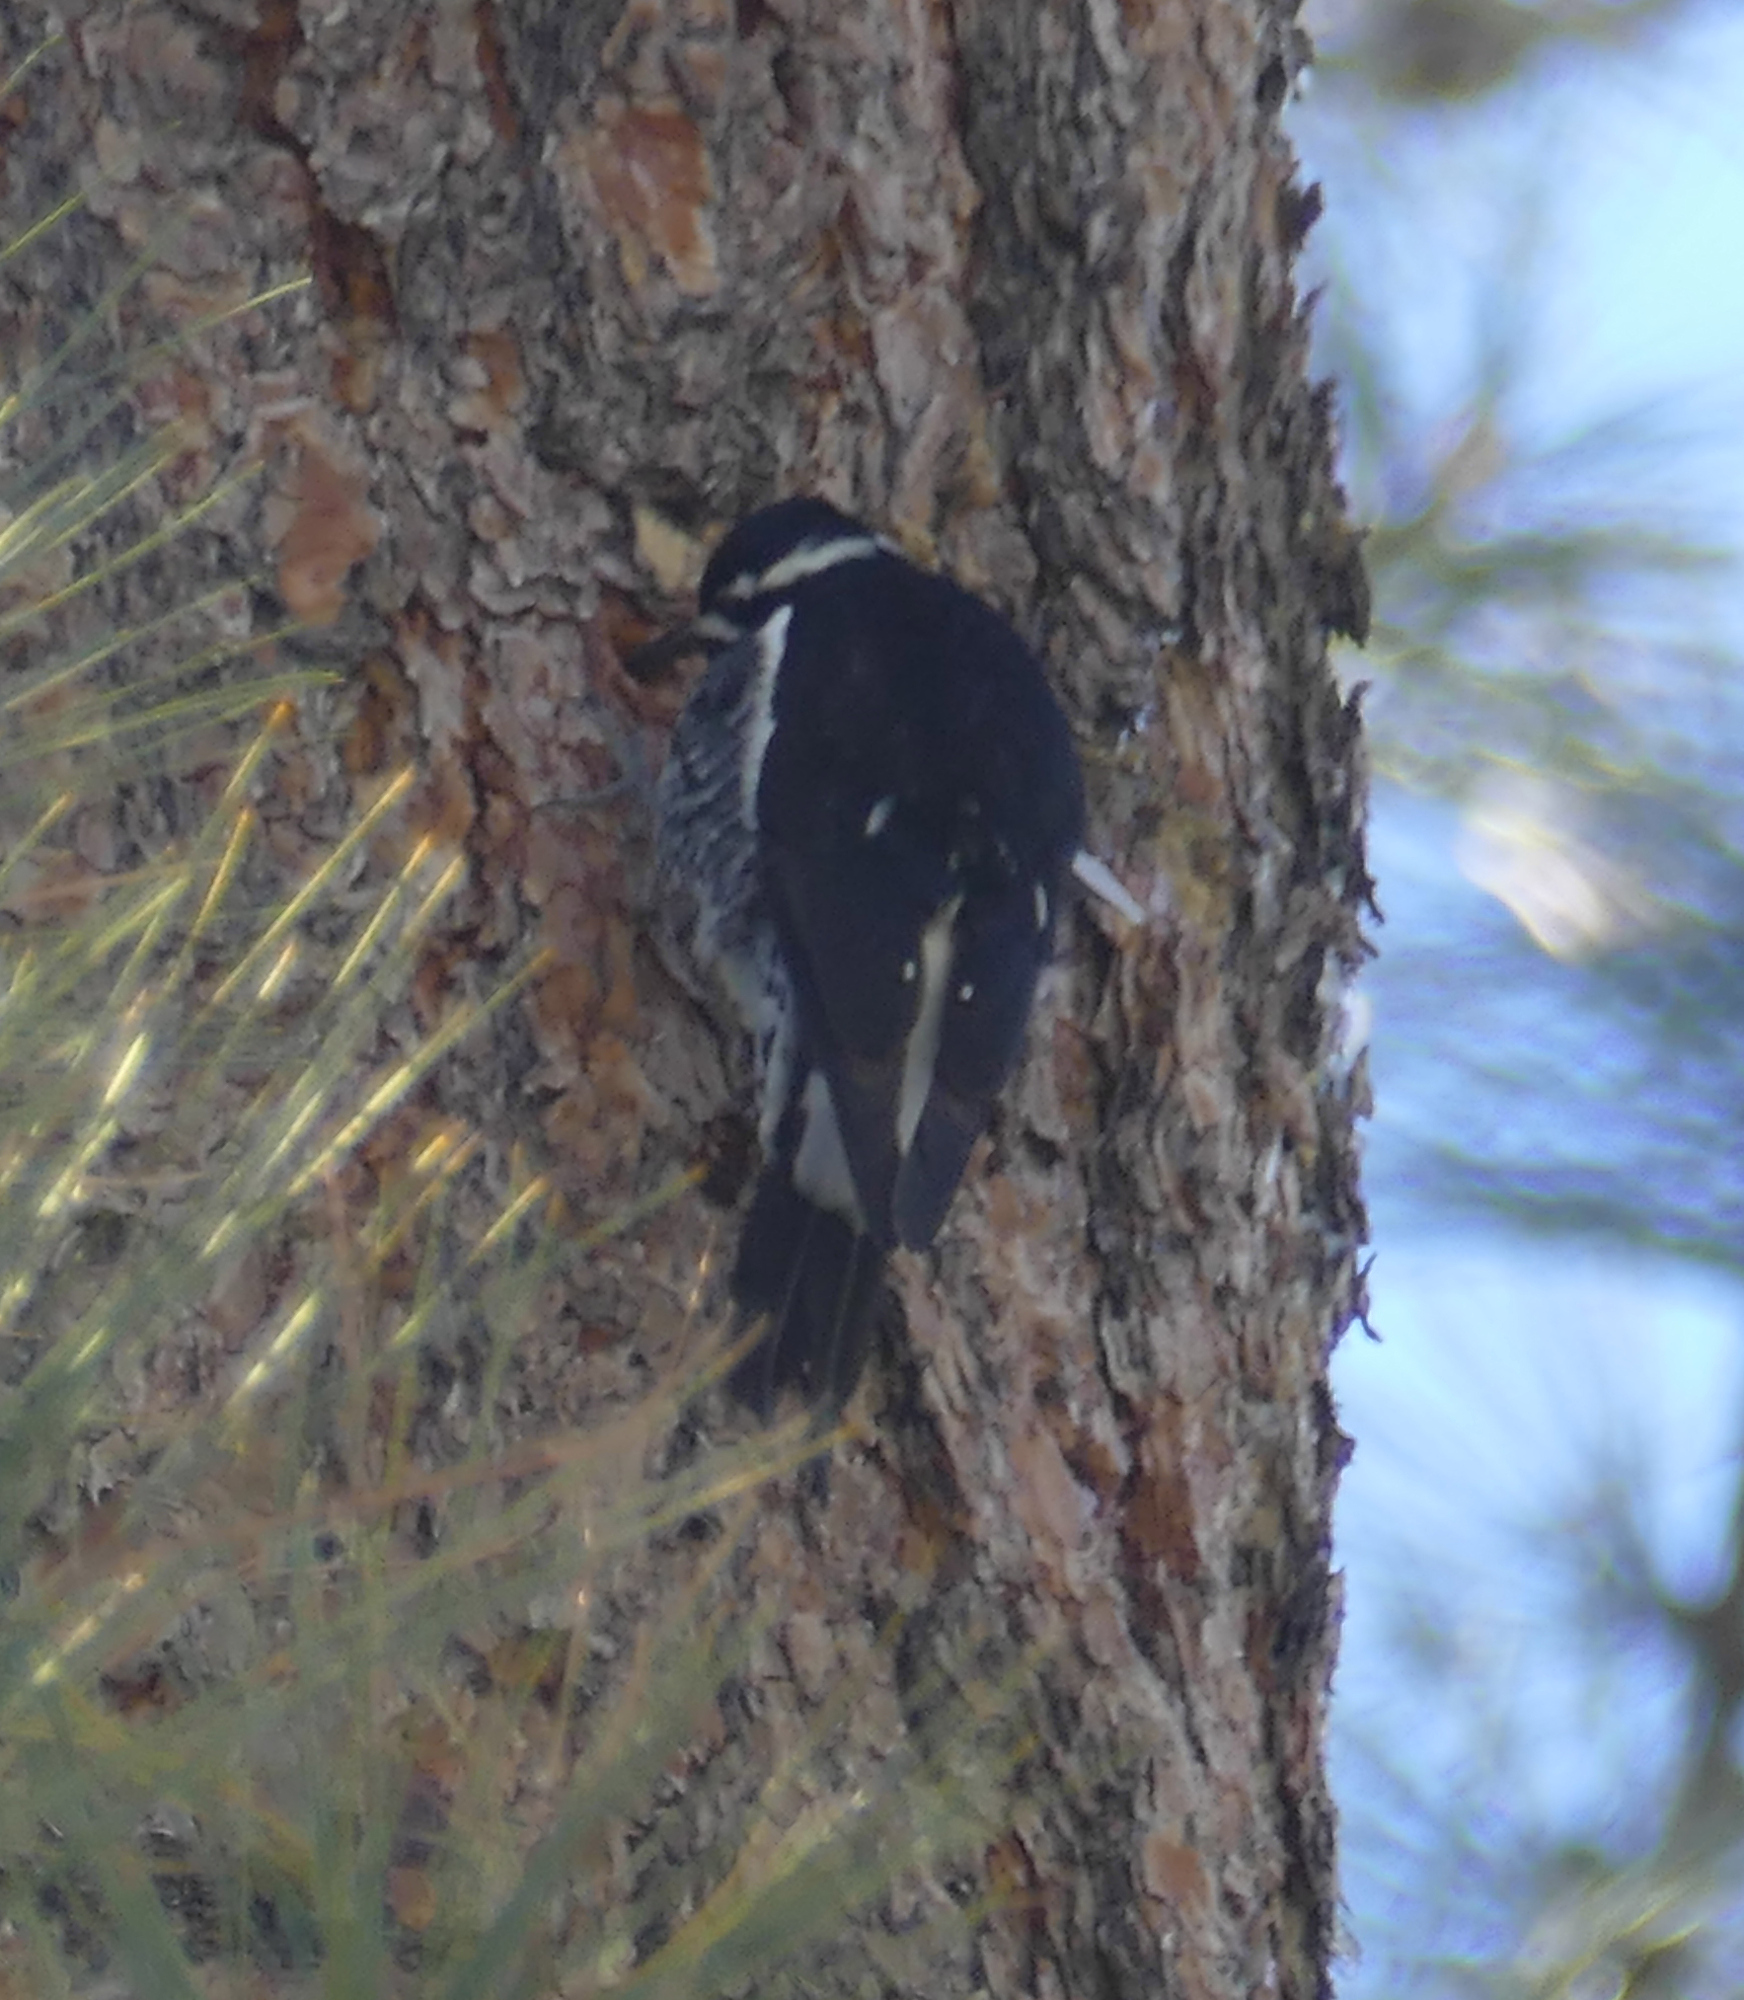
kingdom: Animalia
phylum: Chordata
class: Aves
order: Piciformes
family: Picidae
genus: Sphyrapicus
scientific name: Sphyrapicus thyroideus
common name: Williamson's sapsucker
